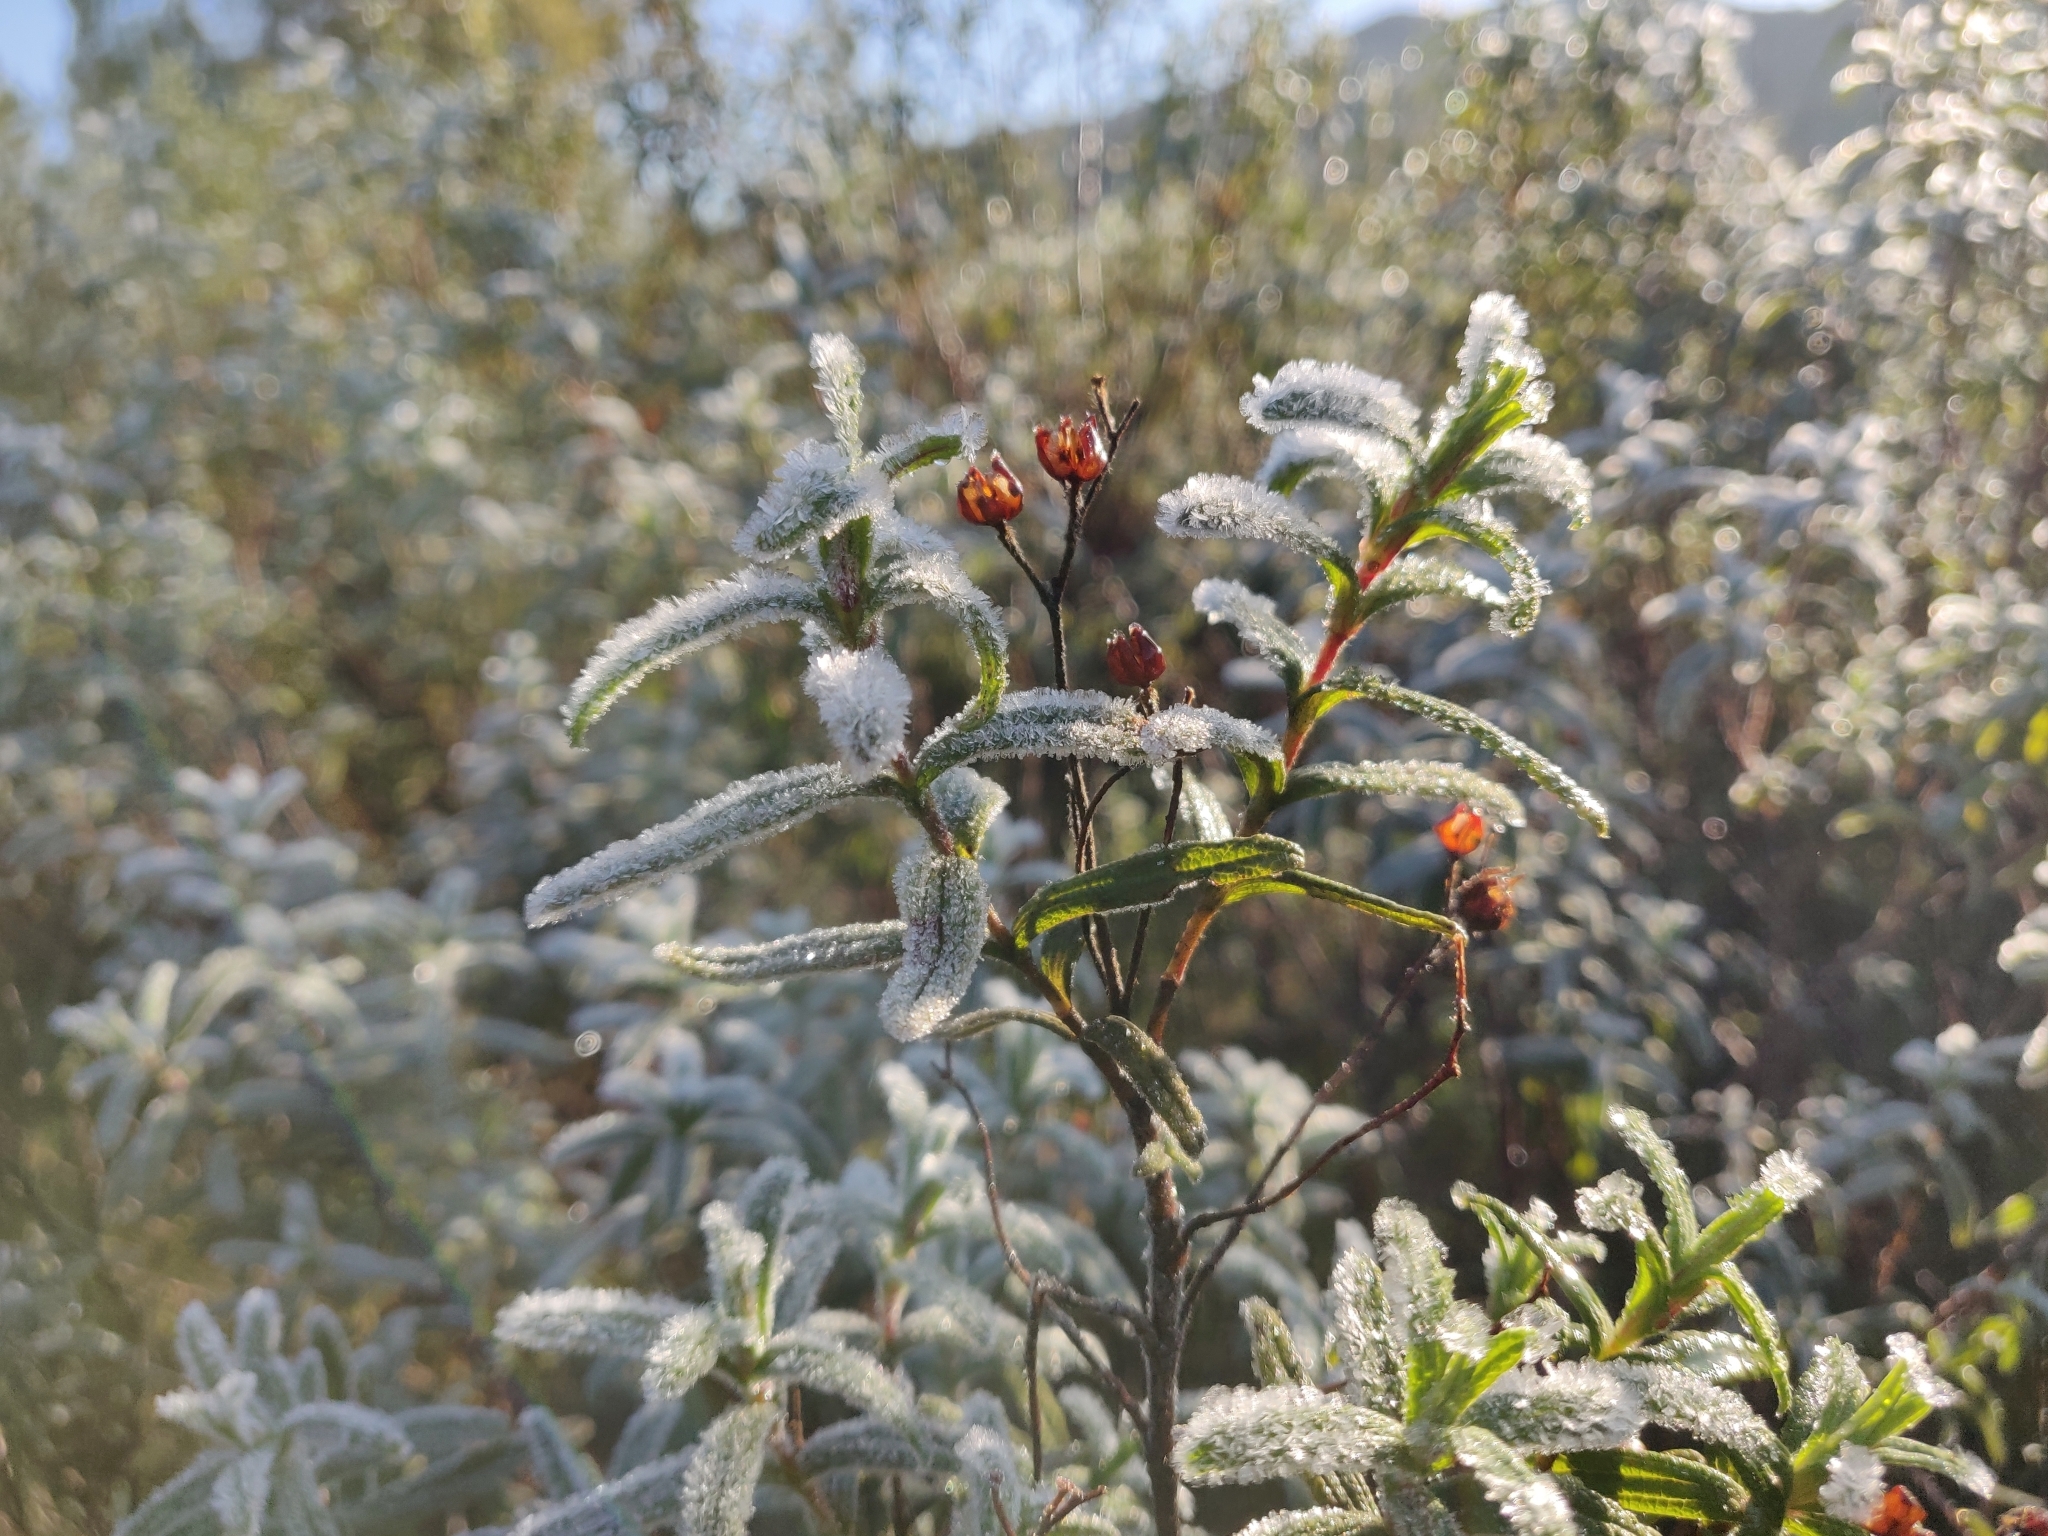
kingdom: Plantae
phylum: Tracheophyta
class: Magnoliopsida
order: Malvales
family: Cistaceae
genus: Cistus
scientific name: Cistus monspeliensis
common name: Montpelier cistus
